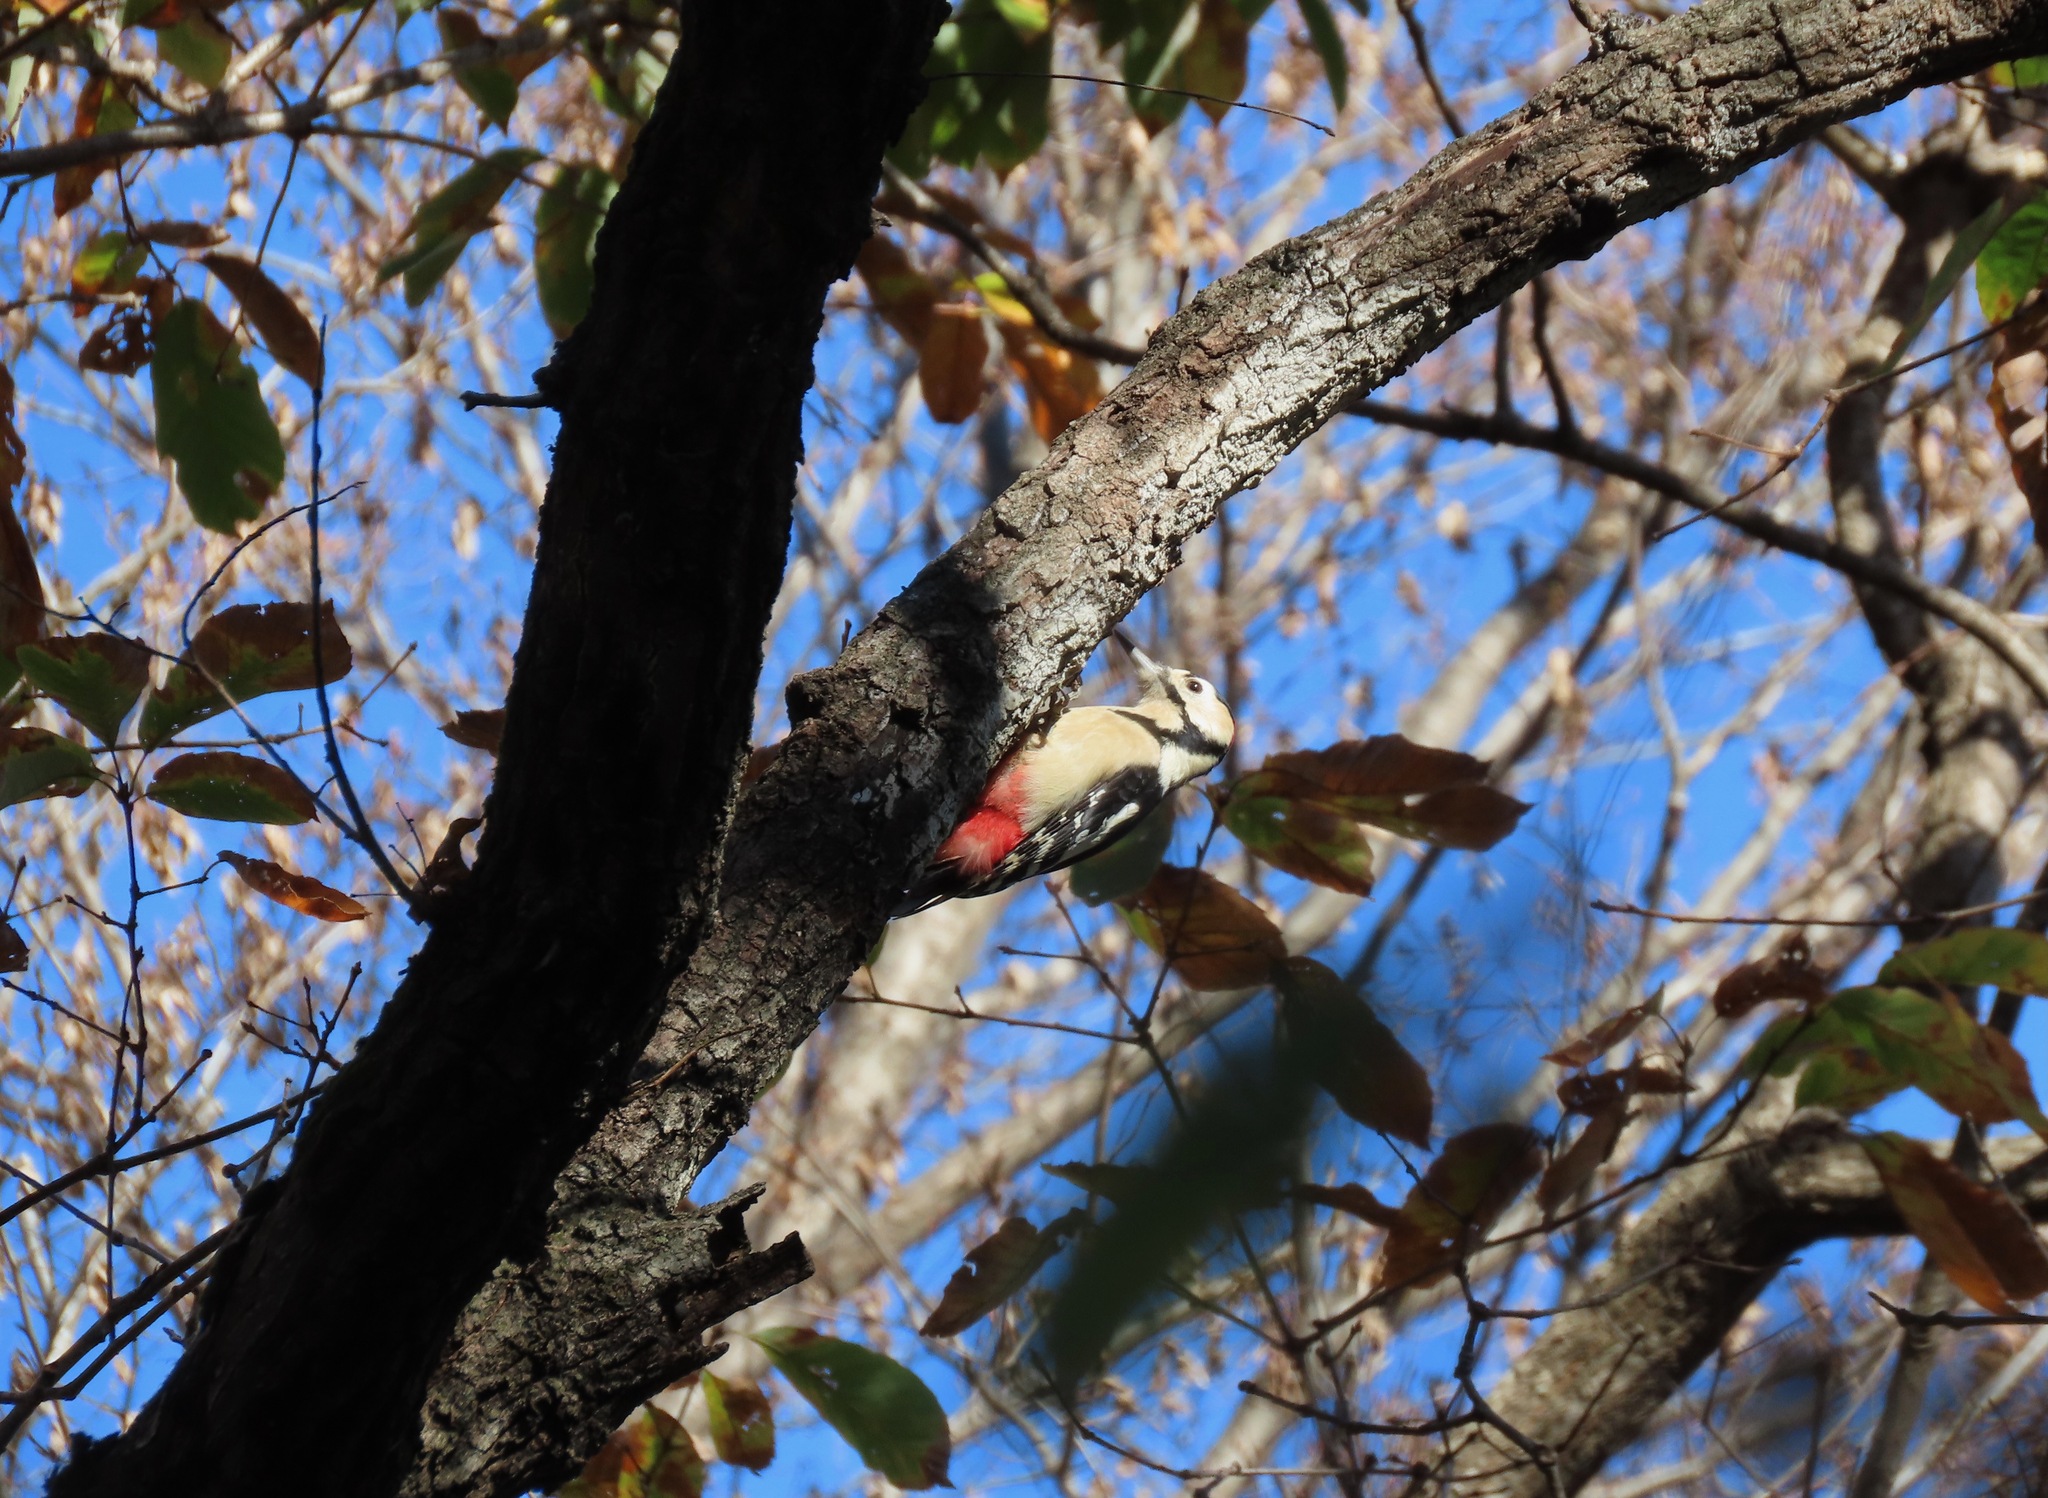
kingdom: Animalia
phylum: Chordata
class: Aves
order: Piciformes
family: Picidae
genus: Dendrocopos
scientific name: Dendrocopos major
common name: Great spotted woodpecker
